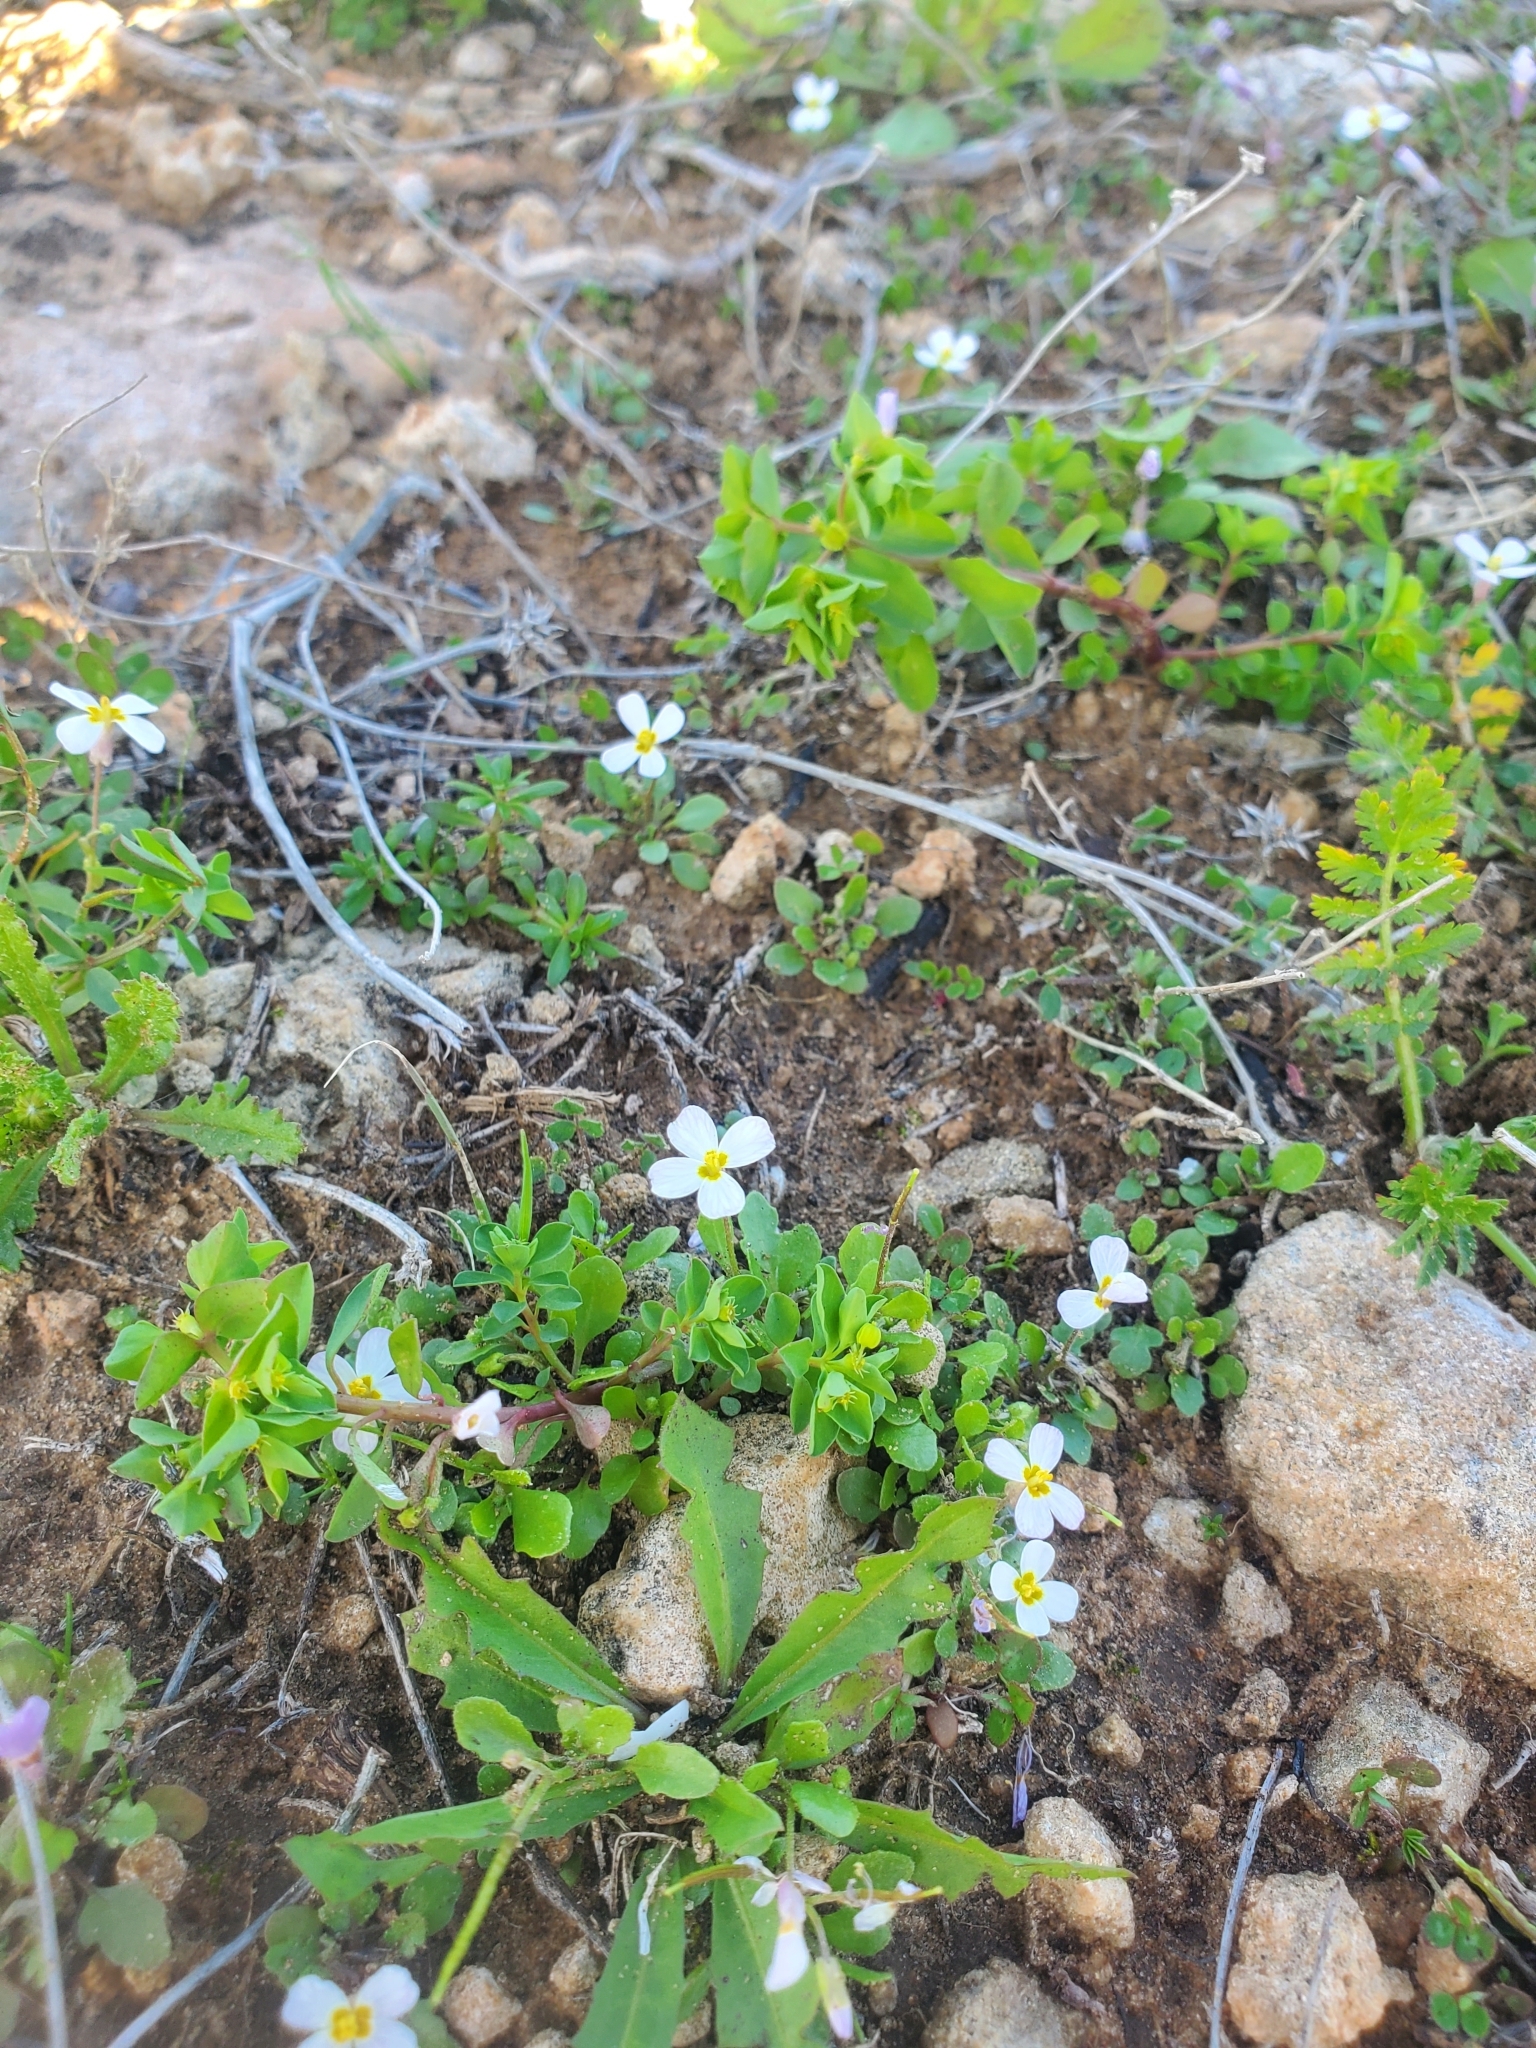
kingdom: Plantae
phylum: Tracheophyta
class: Magnoliopsida
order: Brassicales
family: Brassicaceae
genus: Maresia
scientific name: Maresia pulchella
